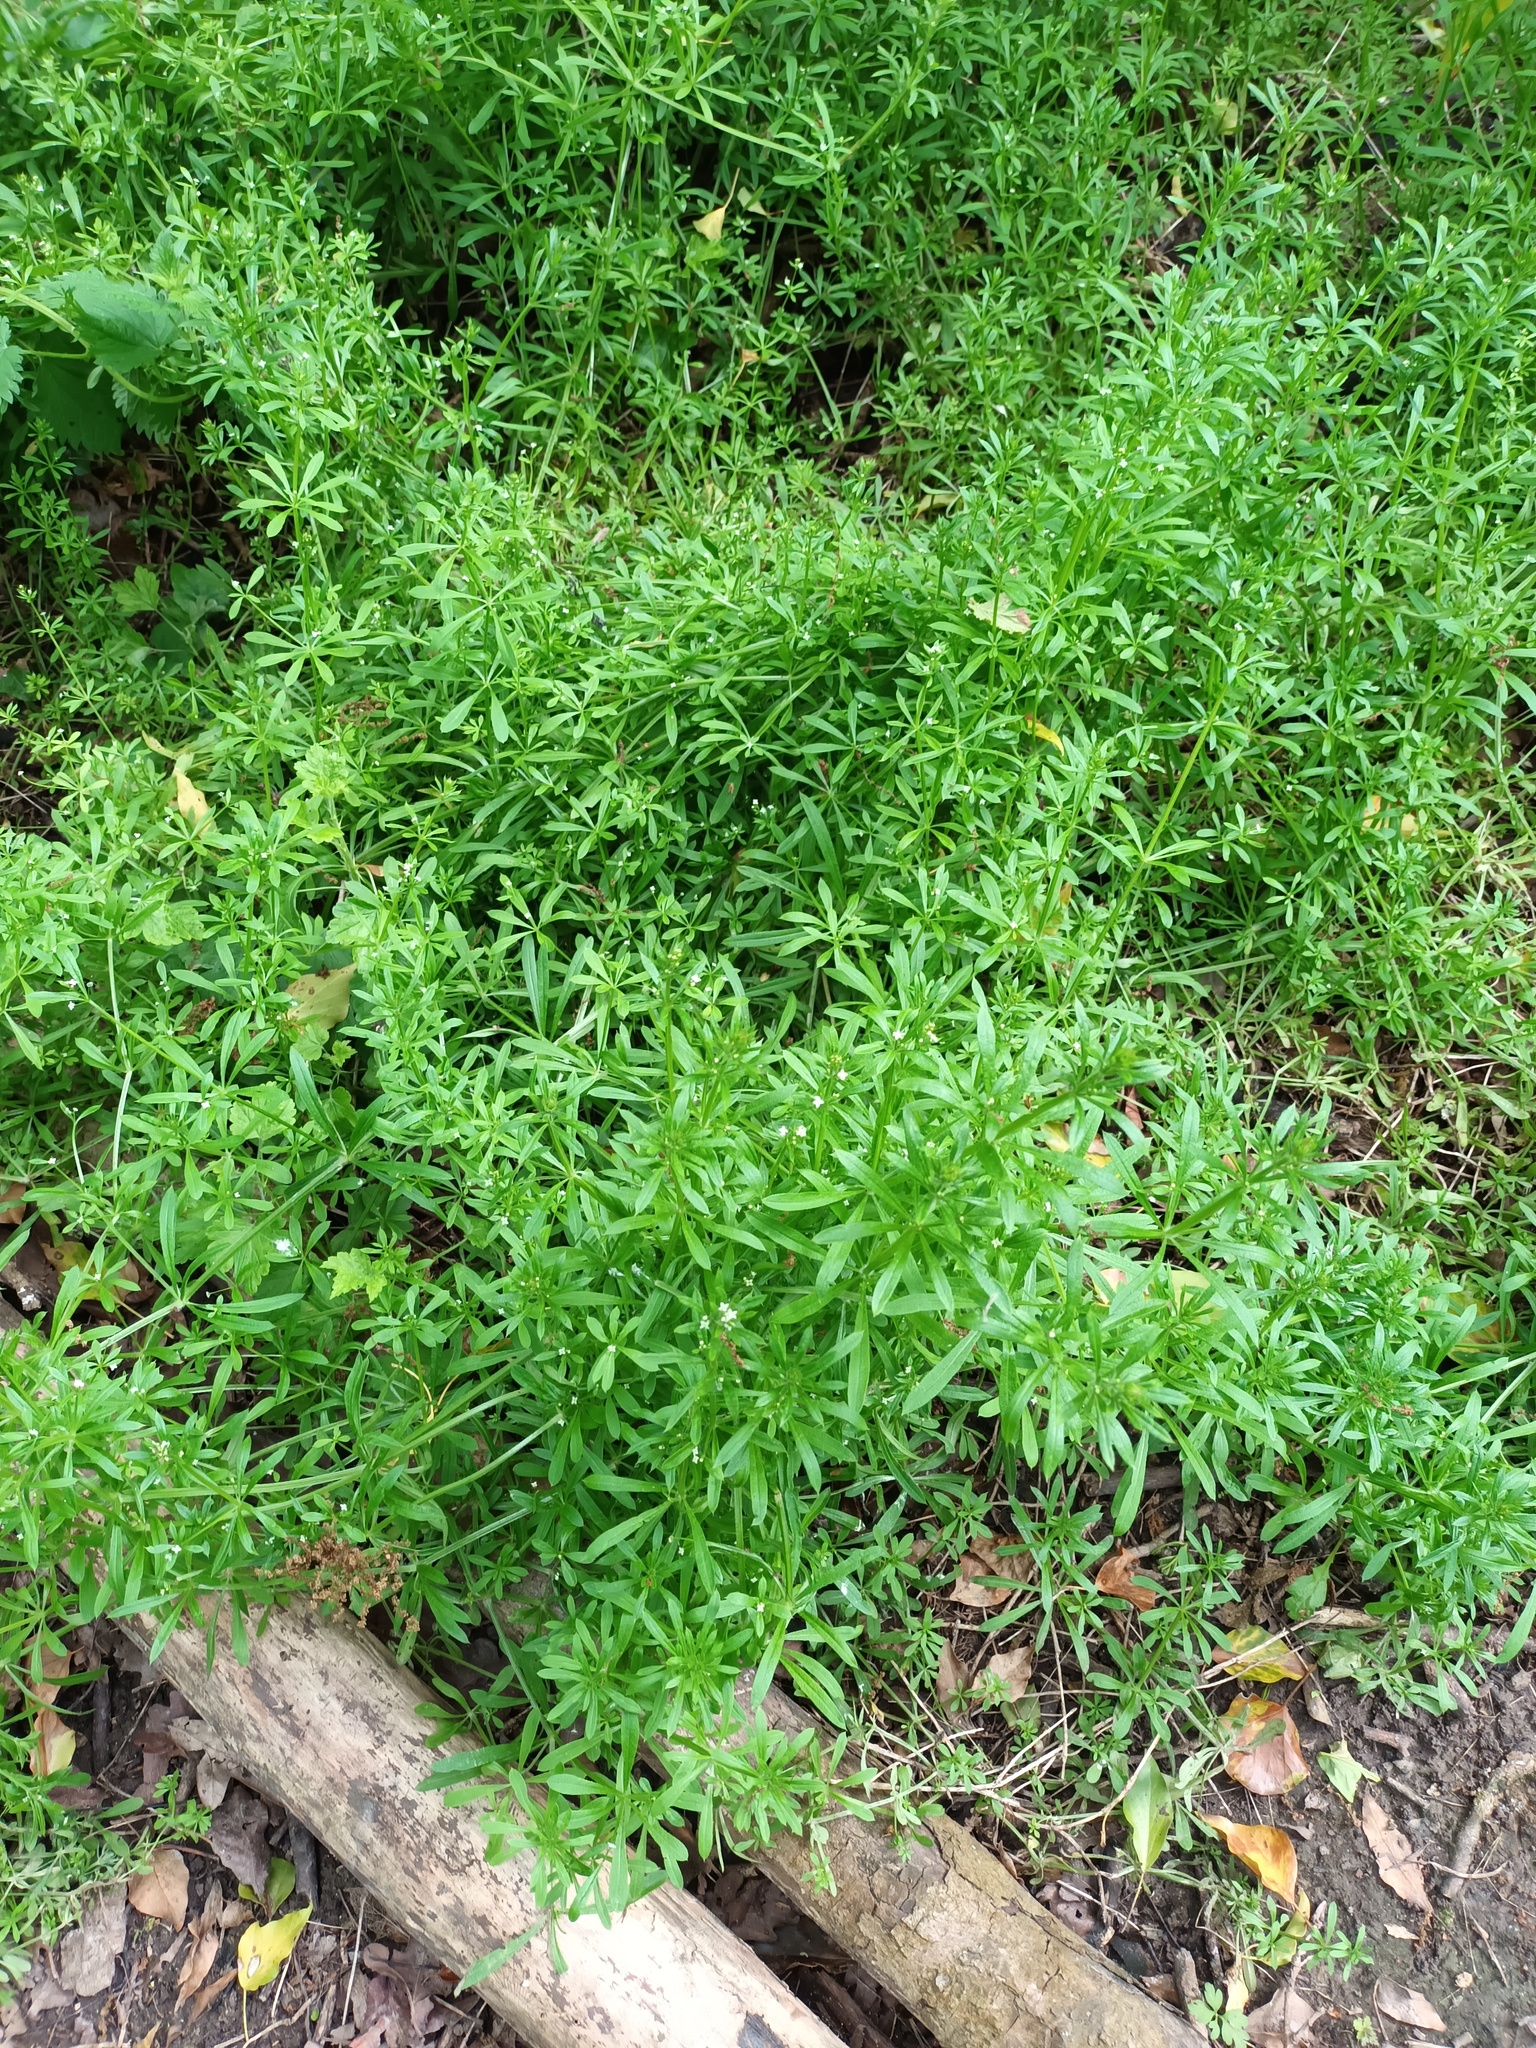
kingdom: Plantae
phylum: Tracheophyta
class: Magnoliopsida
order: Gentianales
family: Rubiaceae
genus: Galium
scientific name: Galium aparine
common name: Cleavers
